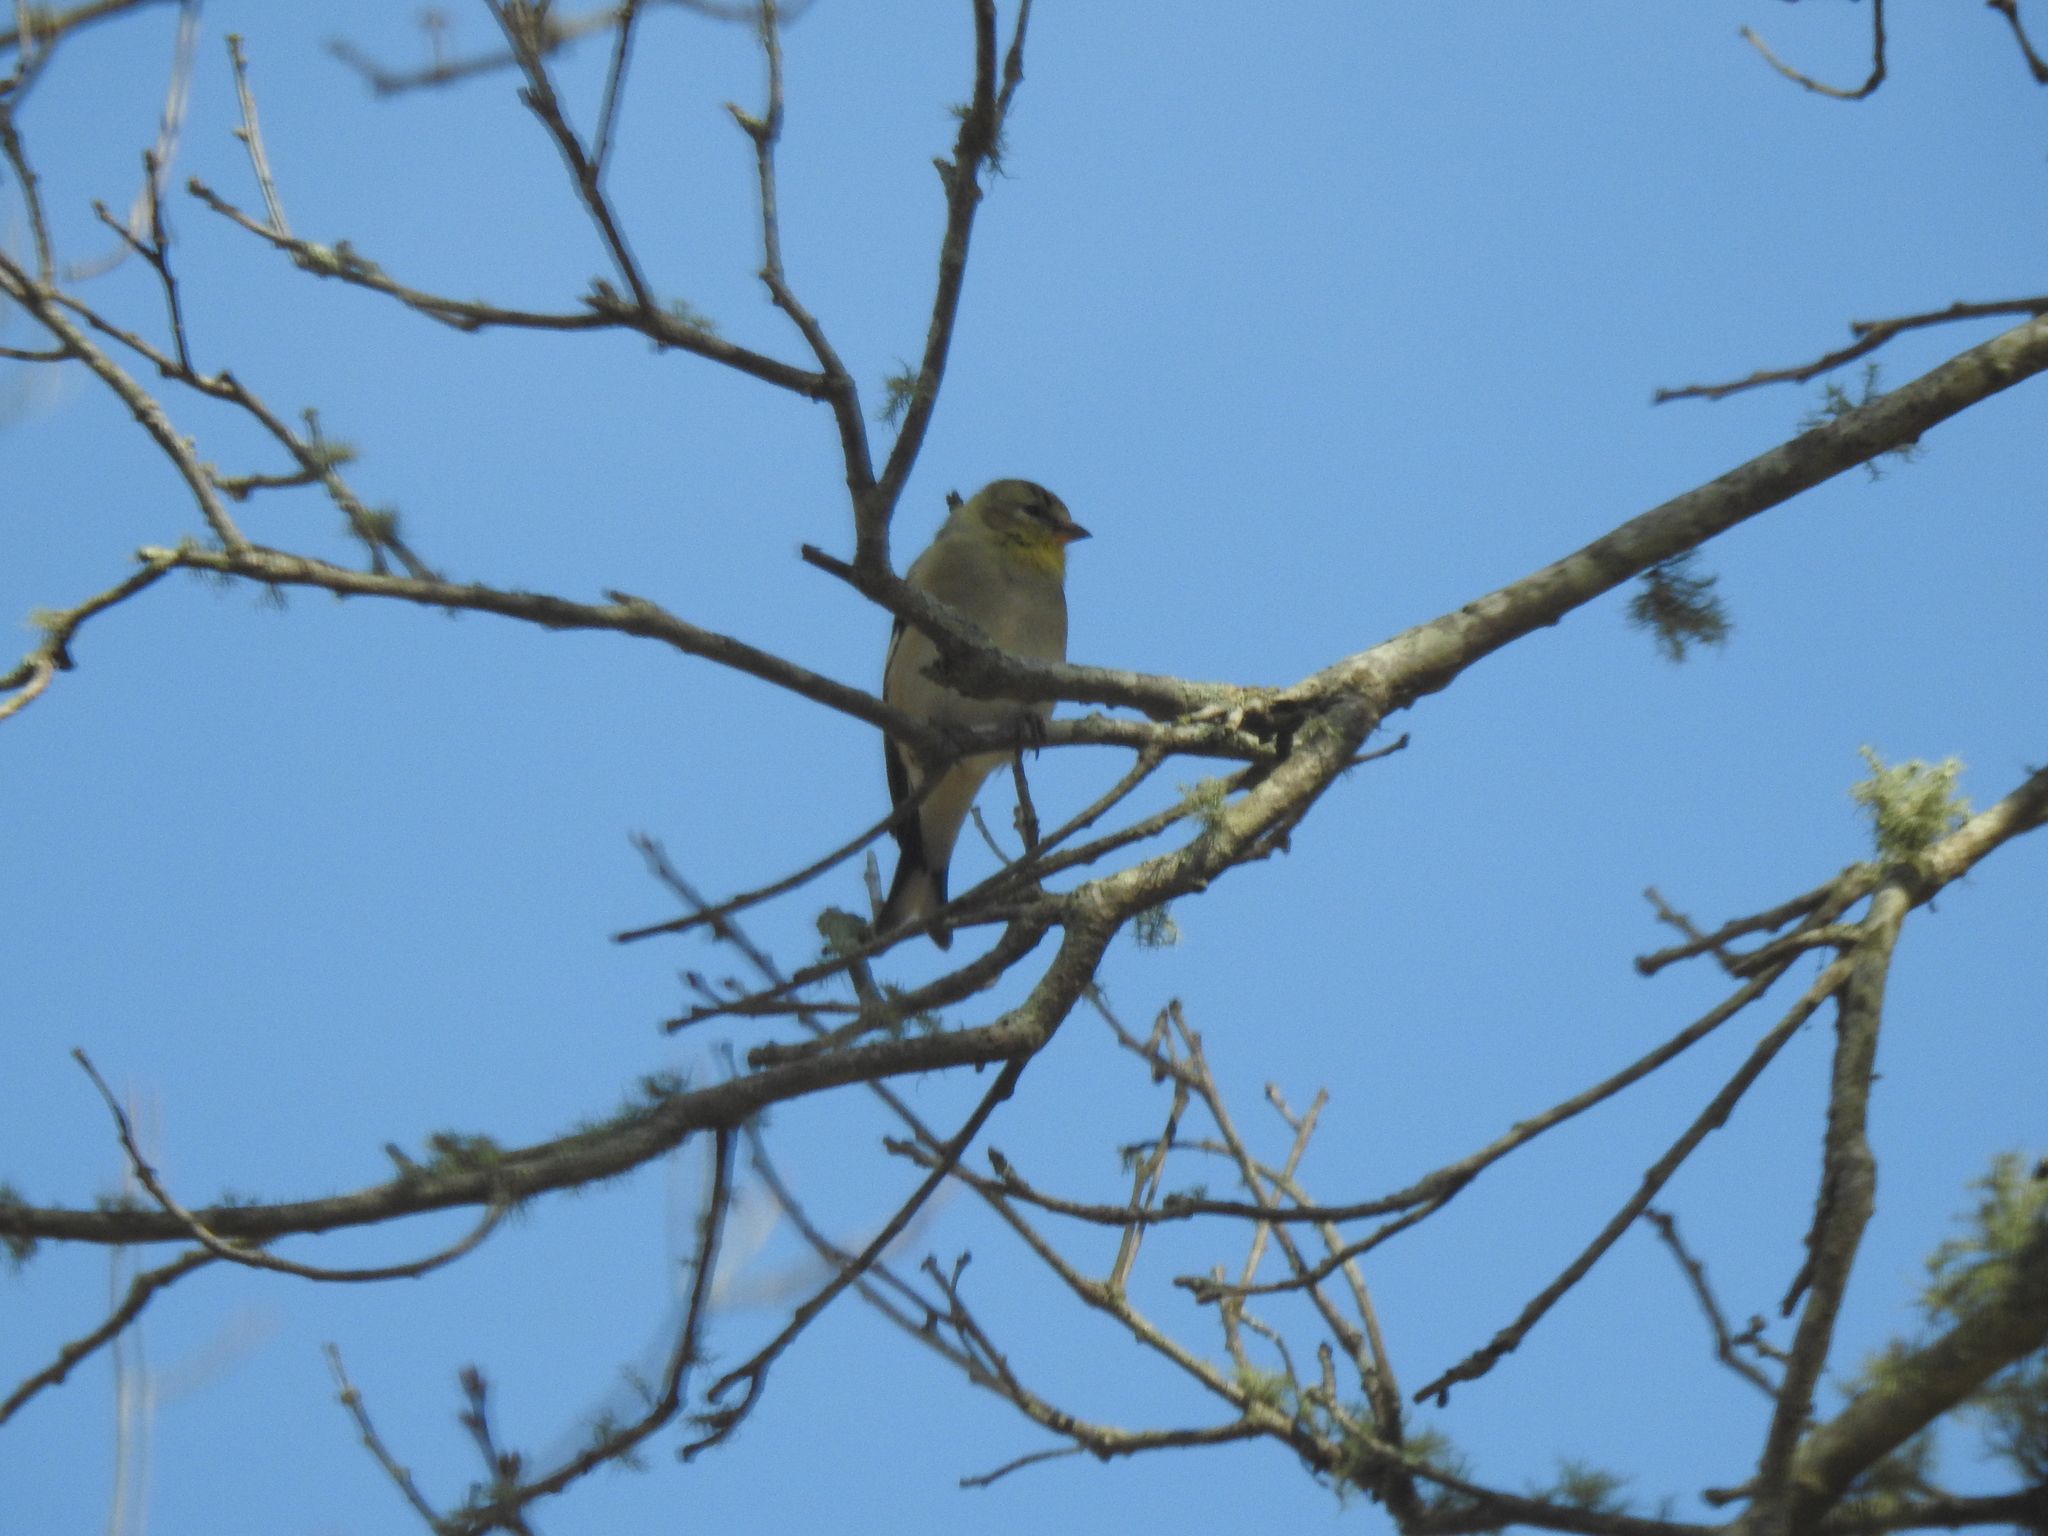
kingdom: Animalia
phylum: Chordata
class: Aves
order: Passeriformes
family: Fringillidae
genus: Spinus
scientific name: Spinus tristis
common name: American goldfinch
